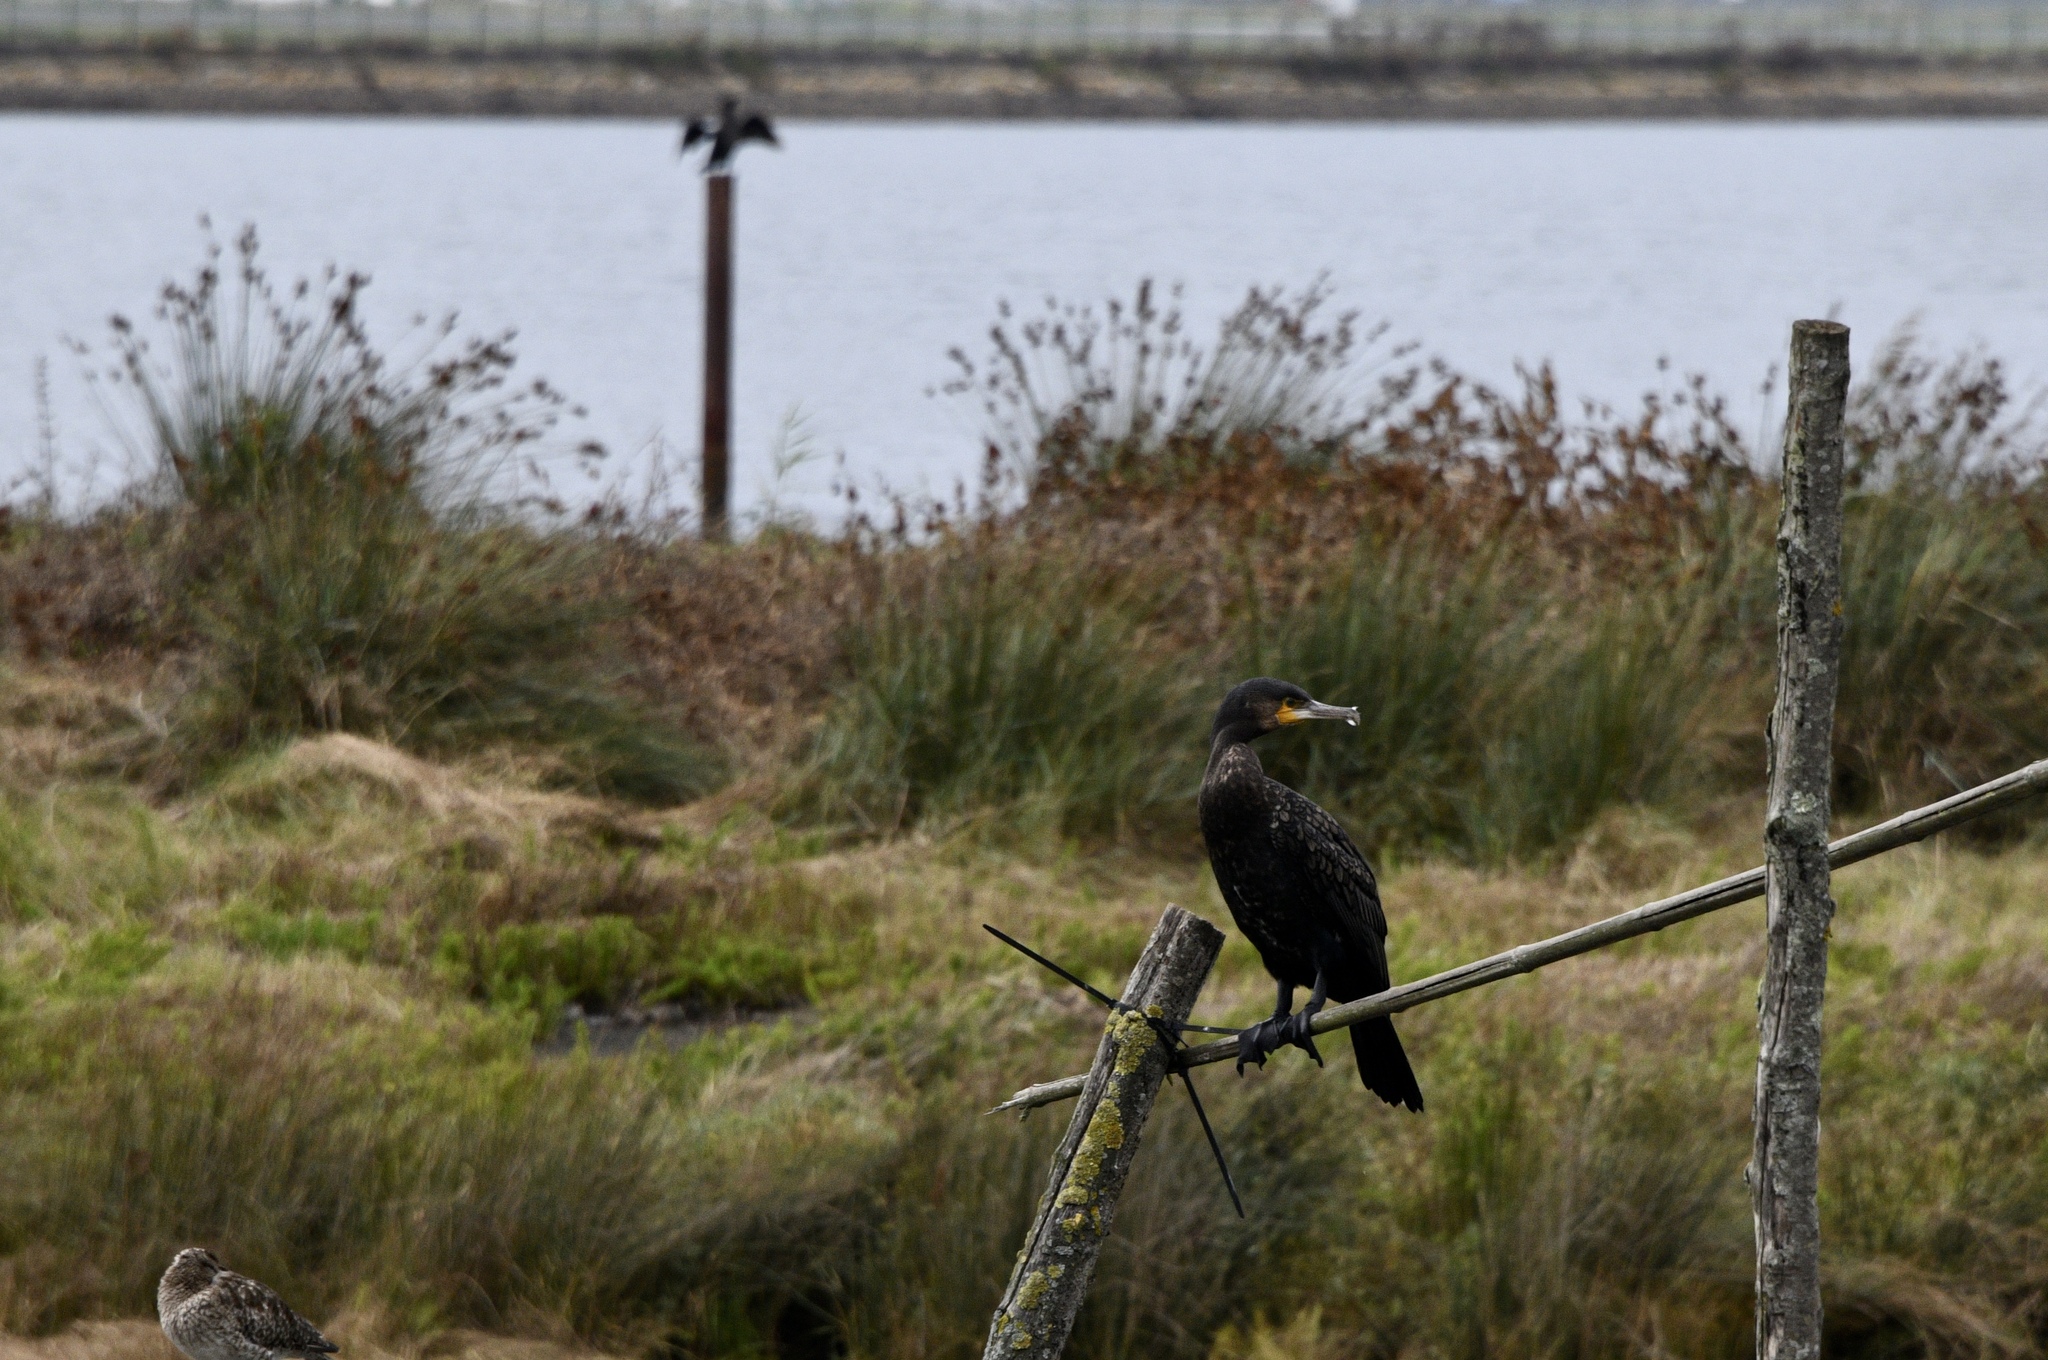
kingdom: Animalia
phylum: Chordata
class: Aves
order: Suliformes
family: Phalacrocoracidae
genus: Phalacrocorax
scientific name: Phalacrocorax carbo
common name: Great cormorant
